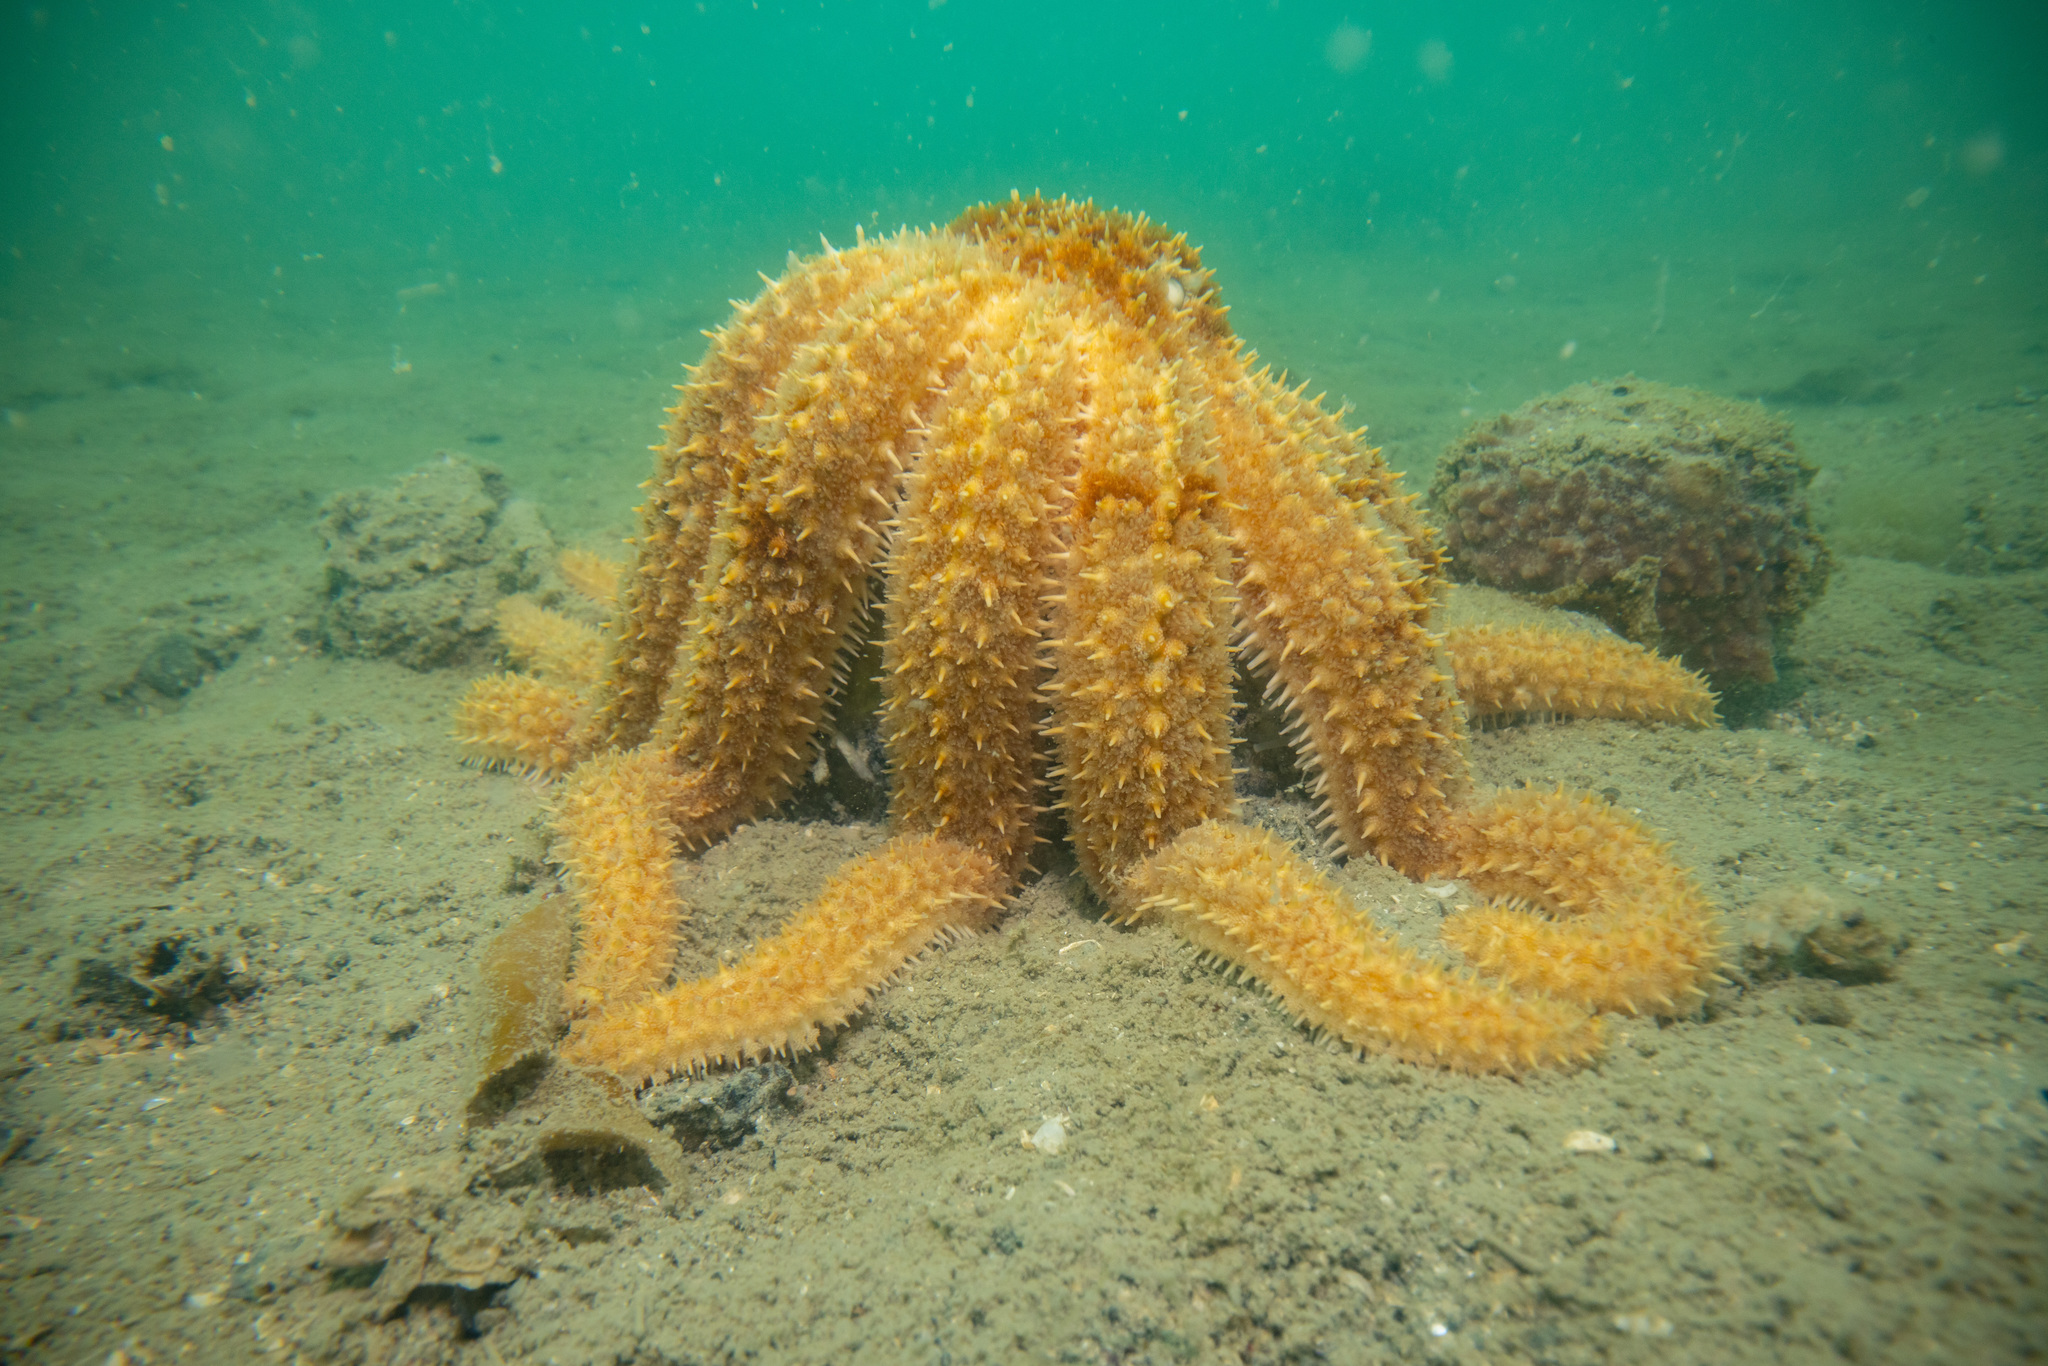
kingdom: Animalia
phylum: Echinodermata
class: Asteroidea
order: Forcipulatida
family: Asteriidae
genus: Coscinasterias
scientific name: Coscinasterias muricata
